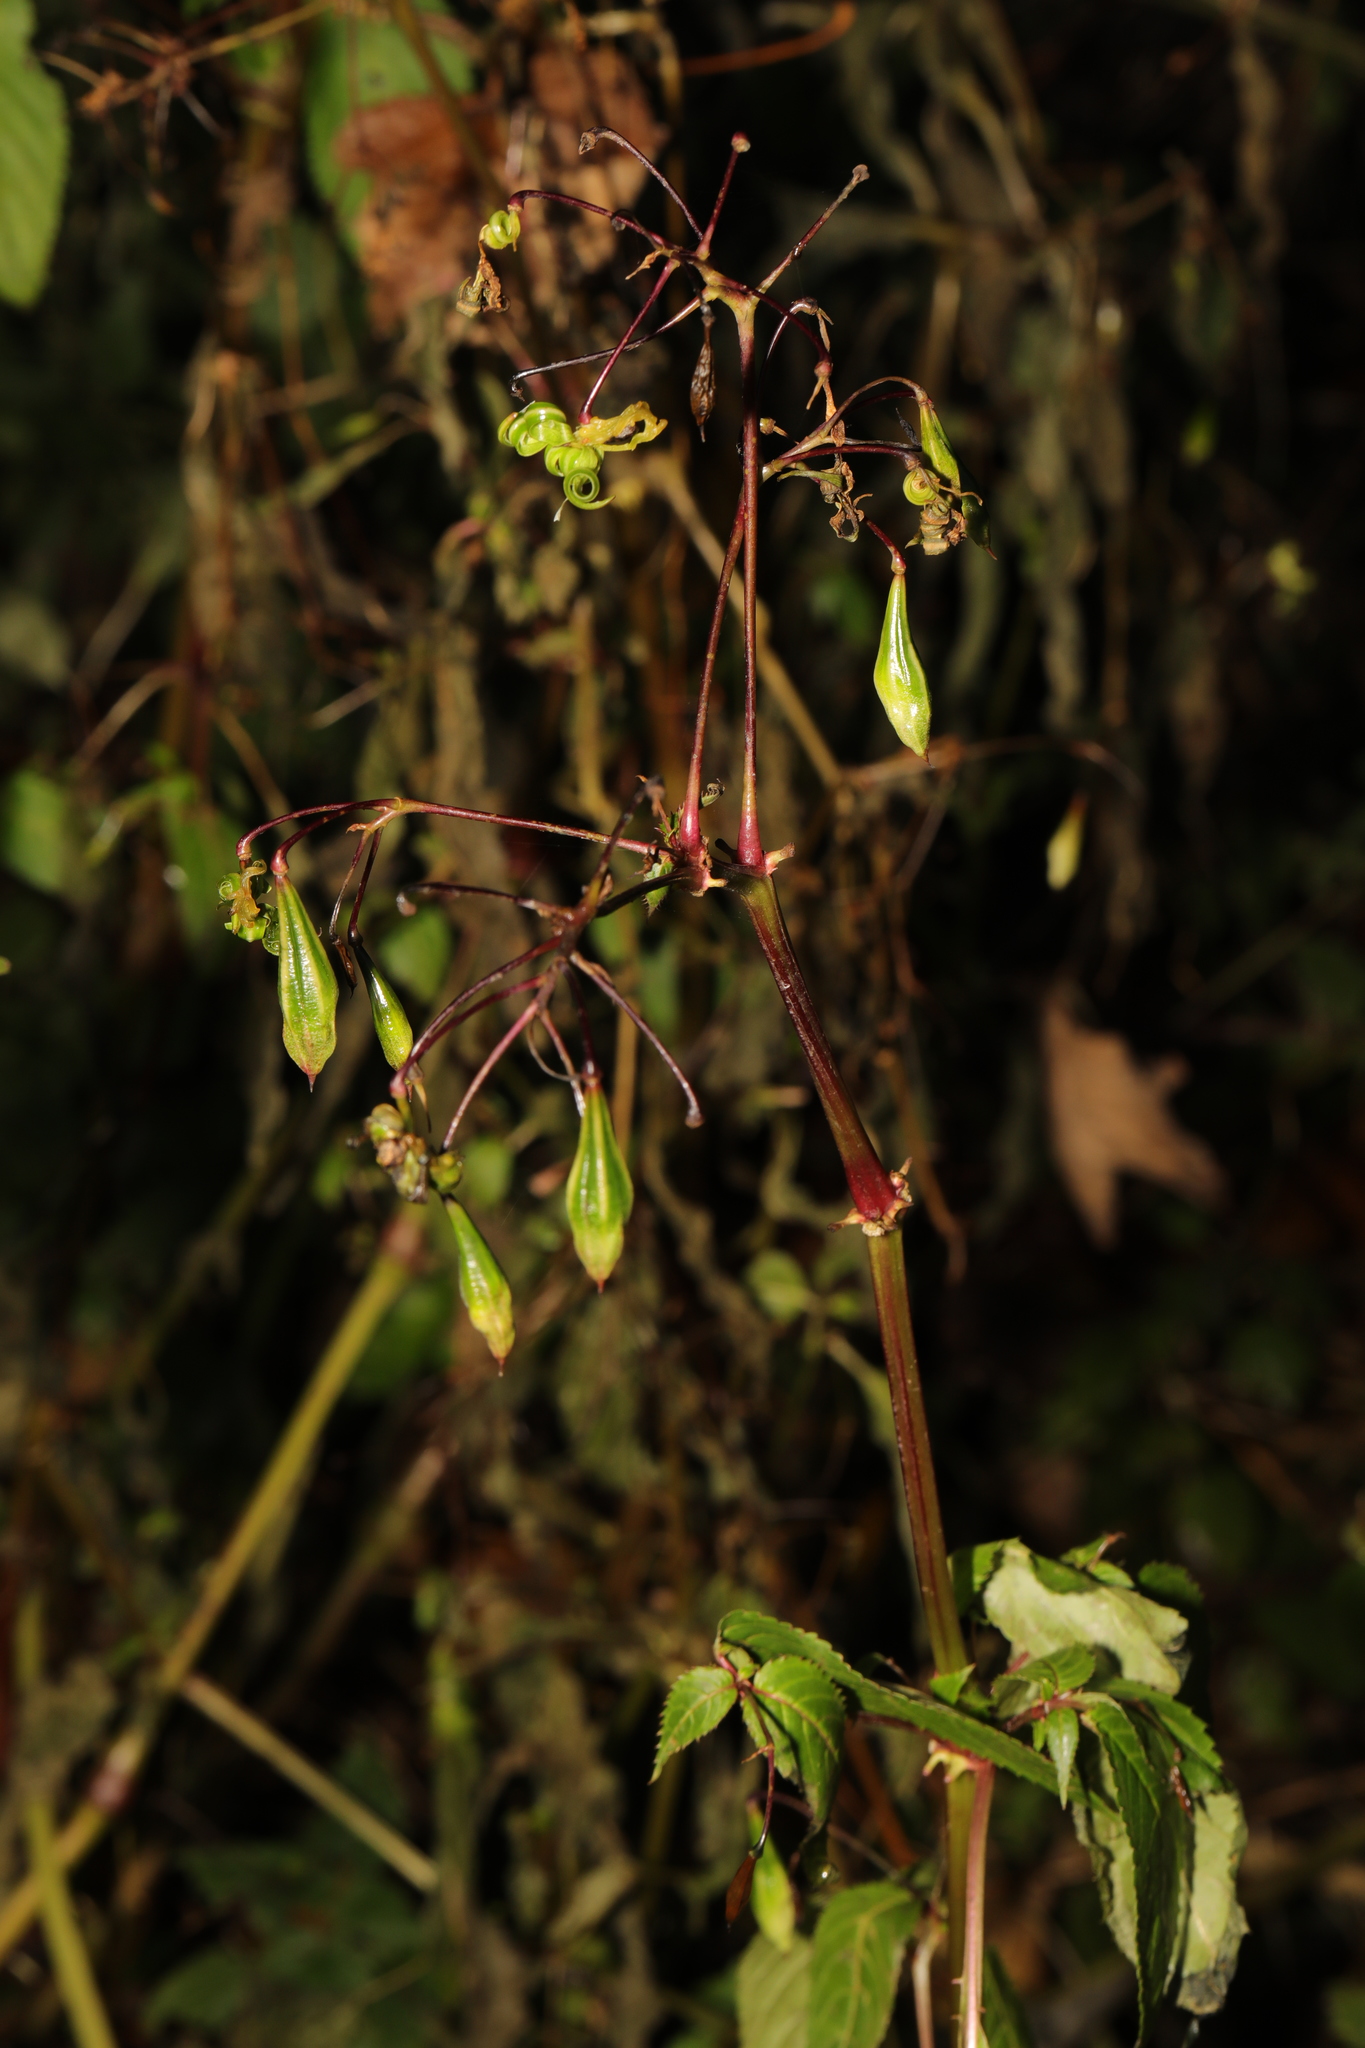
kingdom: Plantae
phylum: Tracheophyta
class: Magnoliopsida
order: Ericales
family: Balsaminaceae
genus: Impatiens
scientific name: Impatiens glandulifera
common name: Himalayan balsam
